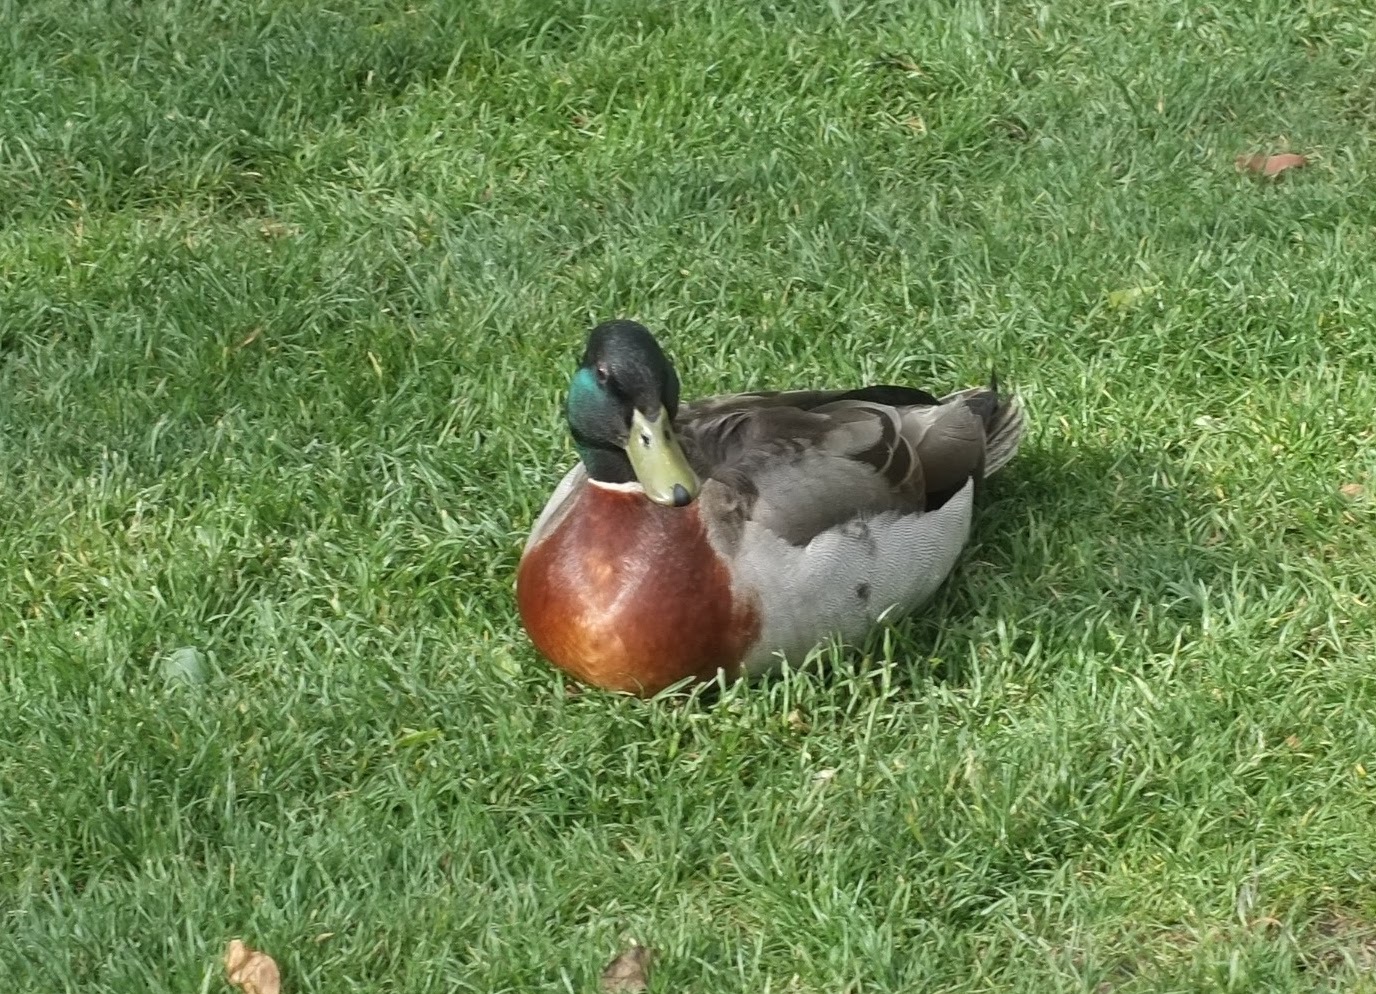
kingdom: Animalia
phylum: Chordata
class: Aves
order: Anseriformes
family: Anatidae
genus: Anas
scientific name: Anas platyrhynchos
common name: Mallard
